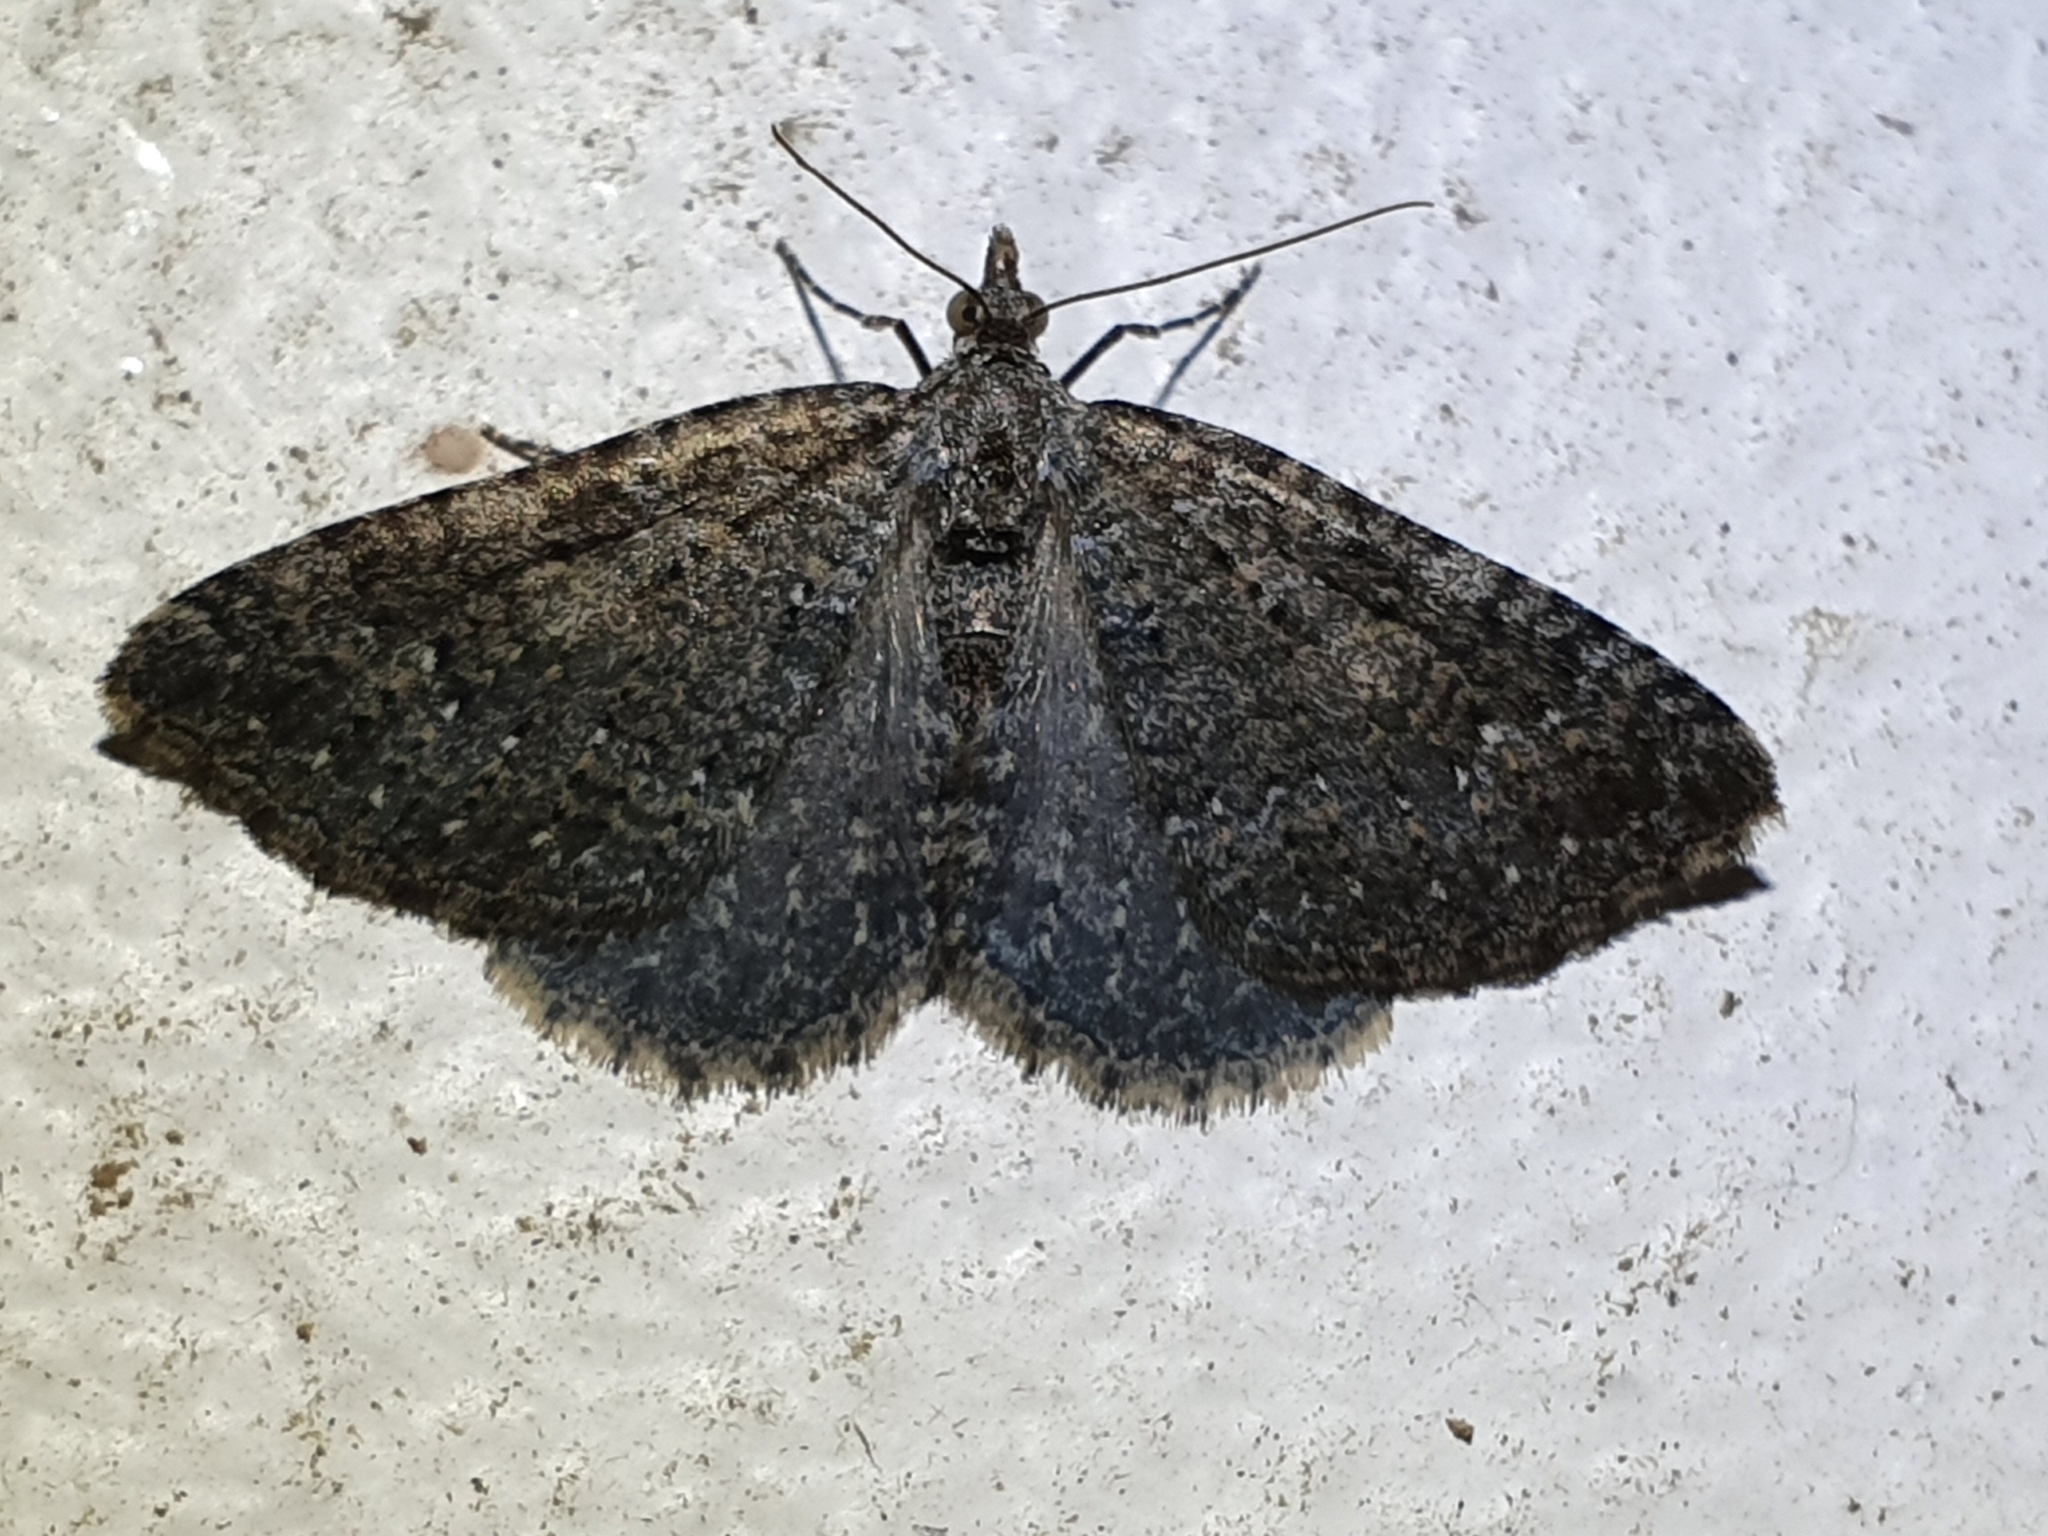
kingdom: Animalia
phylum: Arthropoda
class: Insecta
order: Lepidoptera
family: Geometridae
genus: Helastia
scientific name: Helastia semisignata
